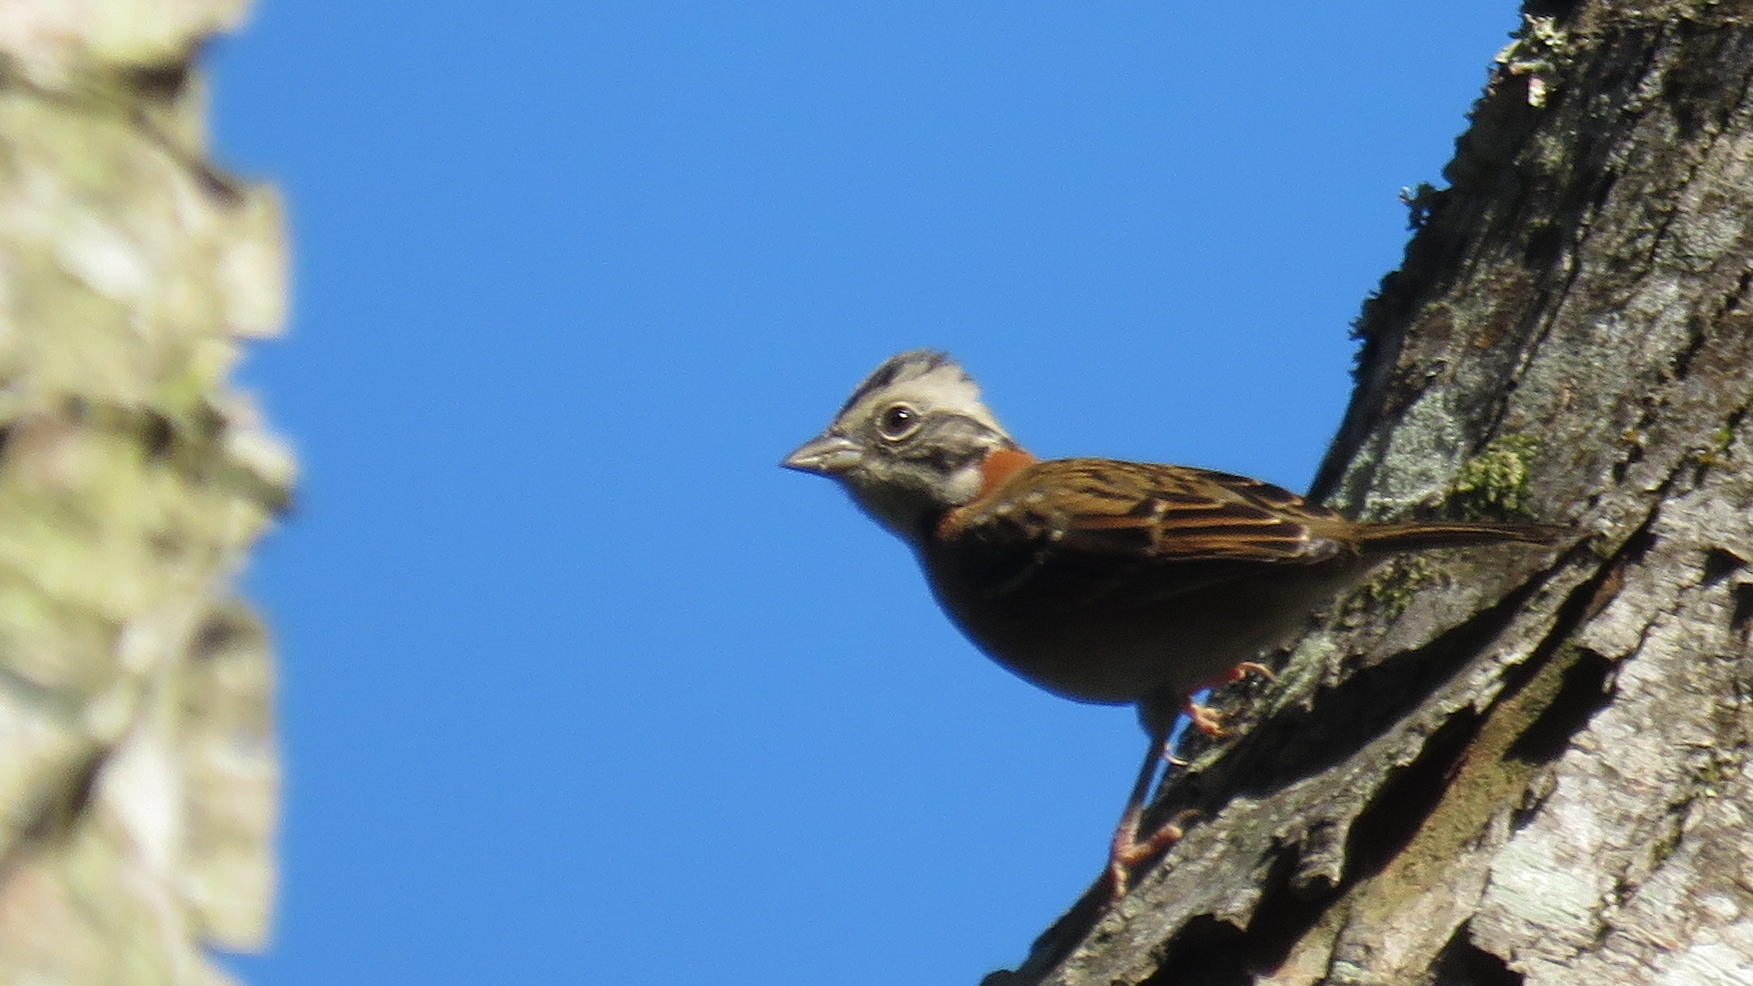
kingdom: Animalia
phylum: Chordata
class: Aves
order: Passeriformes
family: Passerellidae
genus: Zonotrichia
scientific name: Zonotrichia capensis
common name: Rufous-collared sparrow
